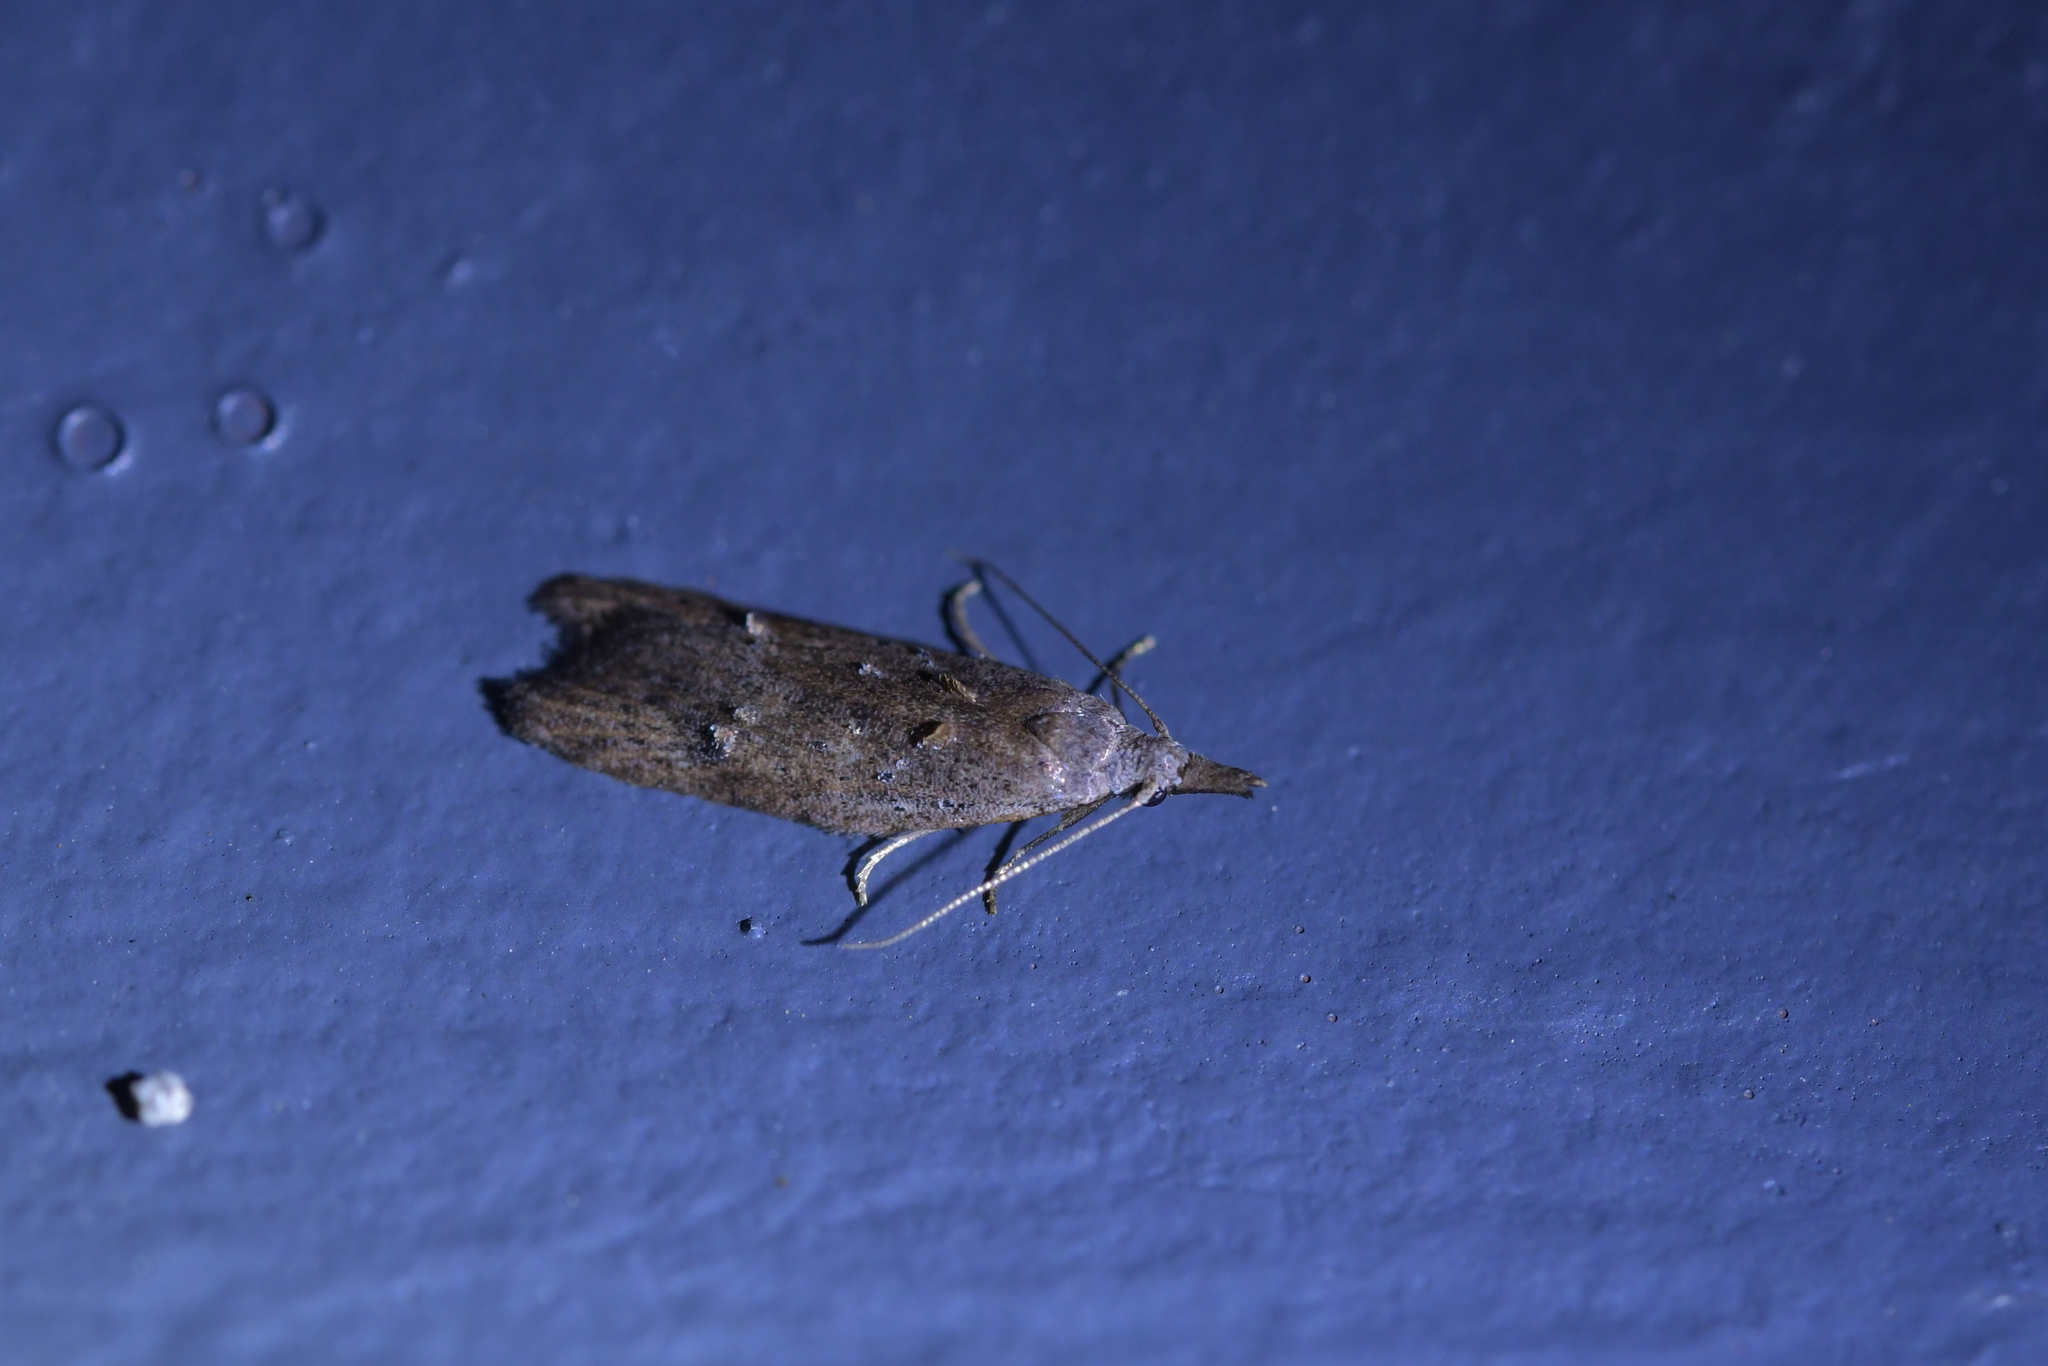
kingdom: Animalia
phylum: Arthropoda
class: Insecta
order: Lepidoptera
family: Carposinidae
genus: Carposina
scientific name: Carposina rubophaga
